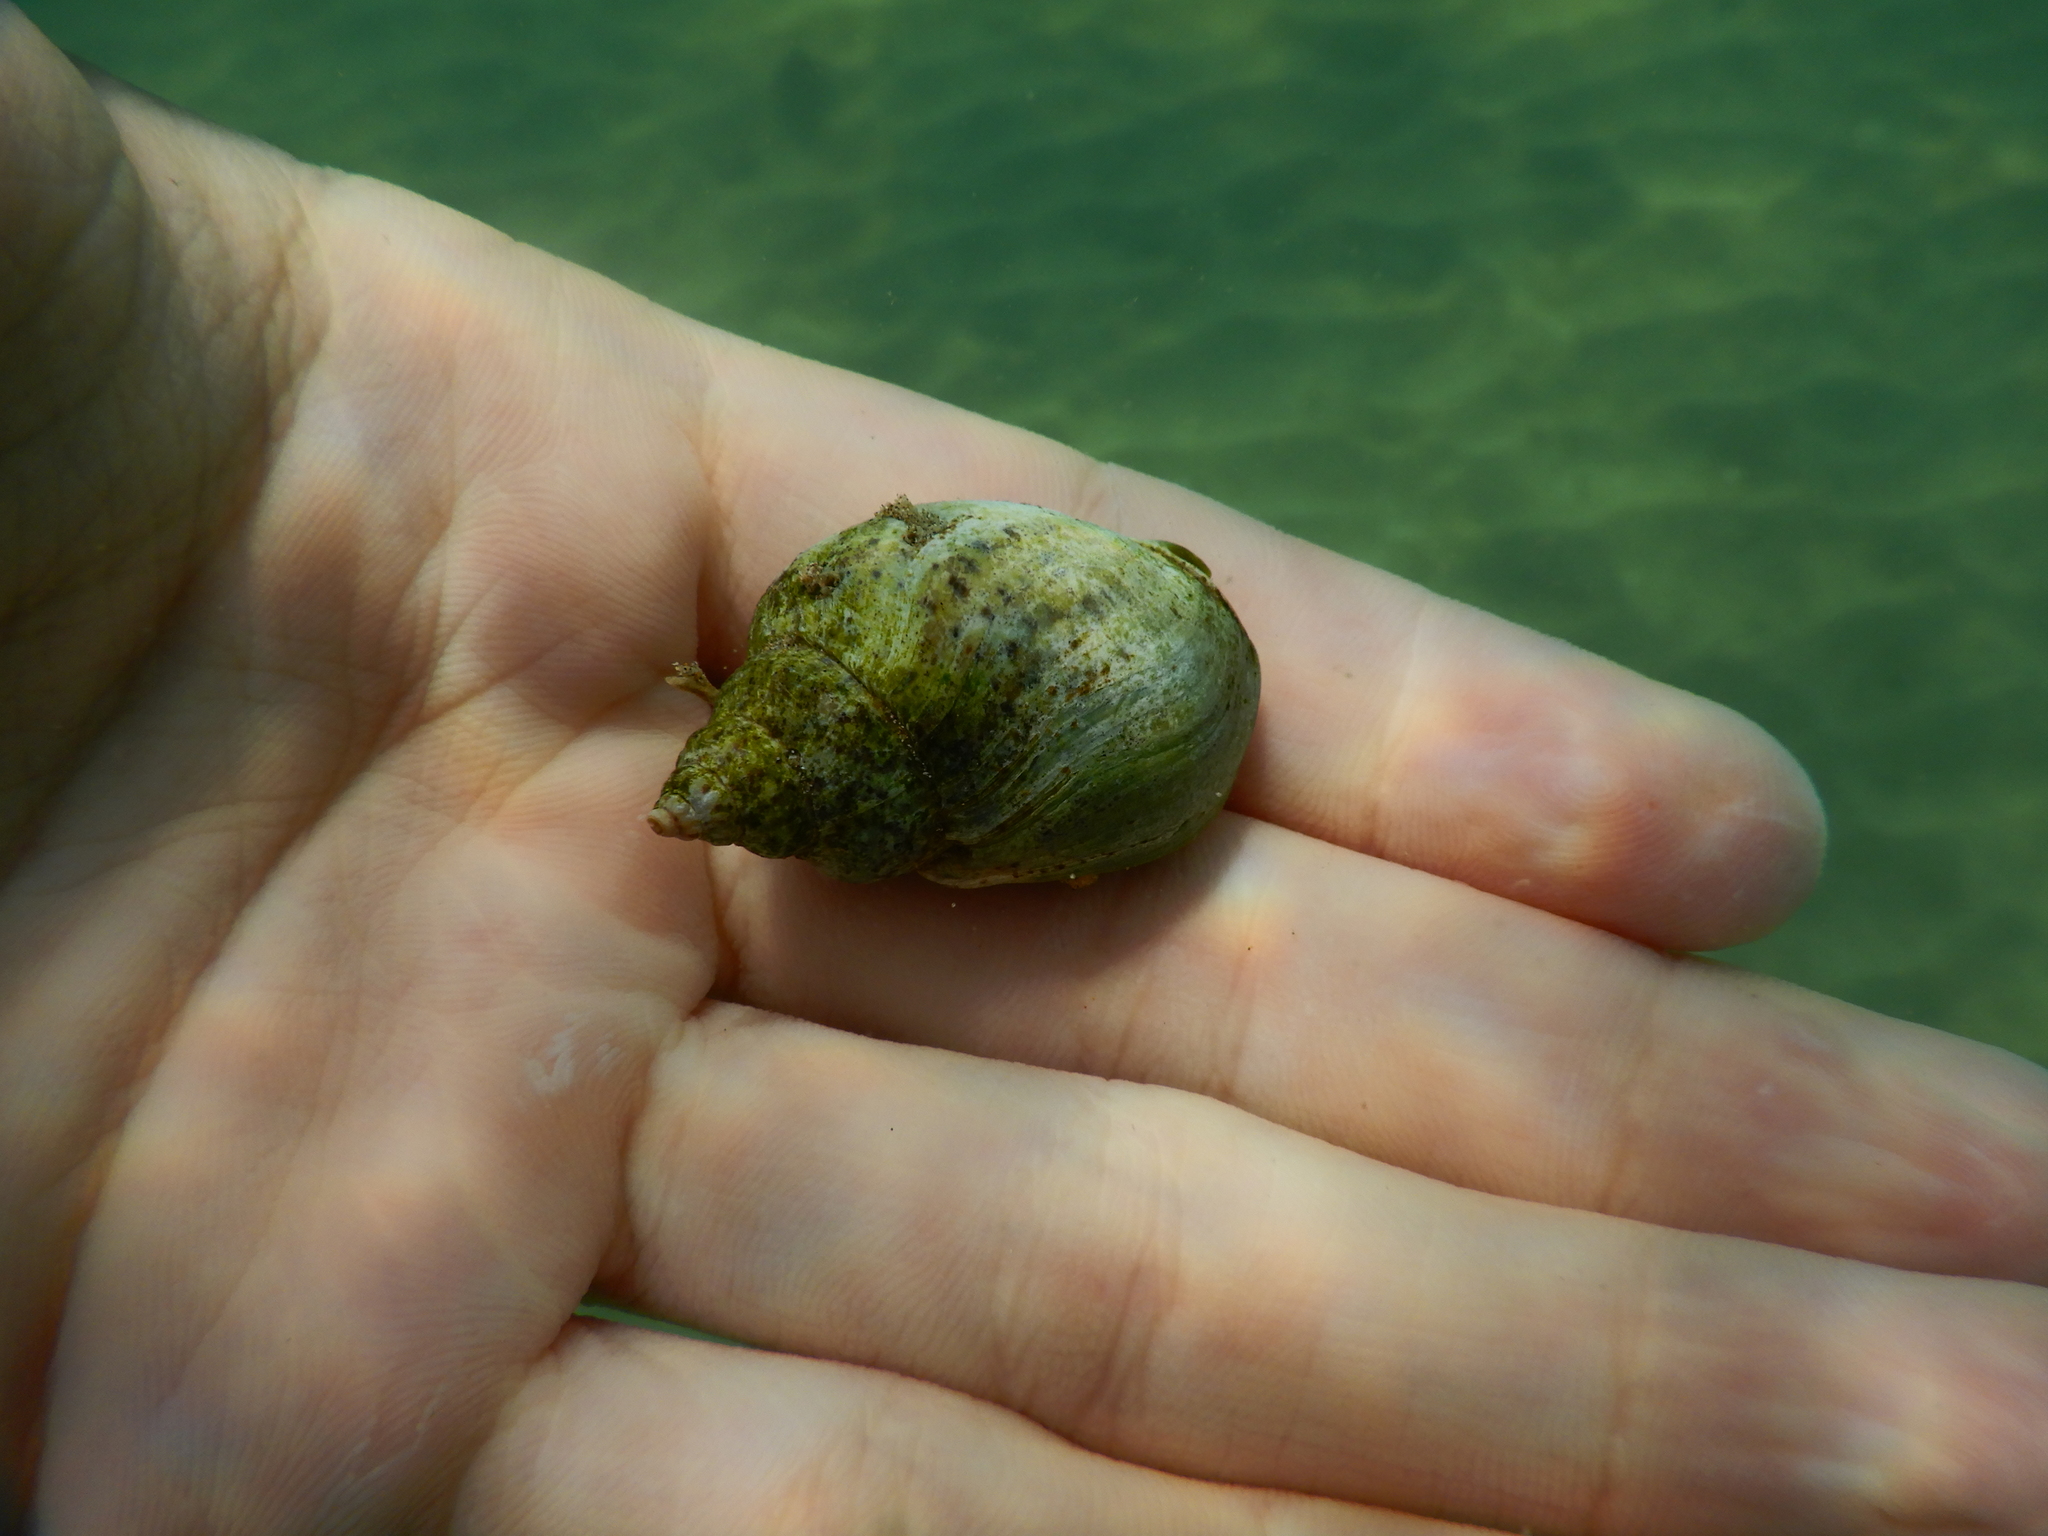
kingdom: Animalia
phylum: Mollusca
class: Gastropoda
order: Neogastropoda
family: Cominellidae
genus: Cominella
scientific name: Cominella adspersa
